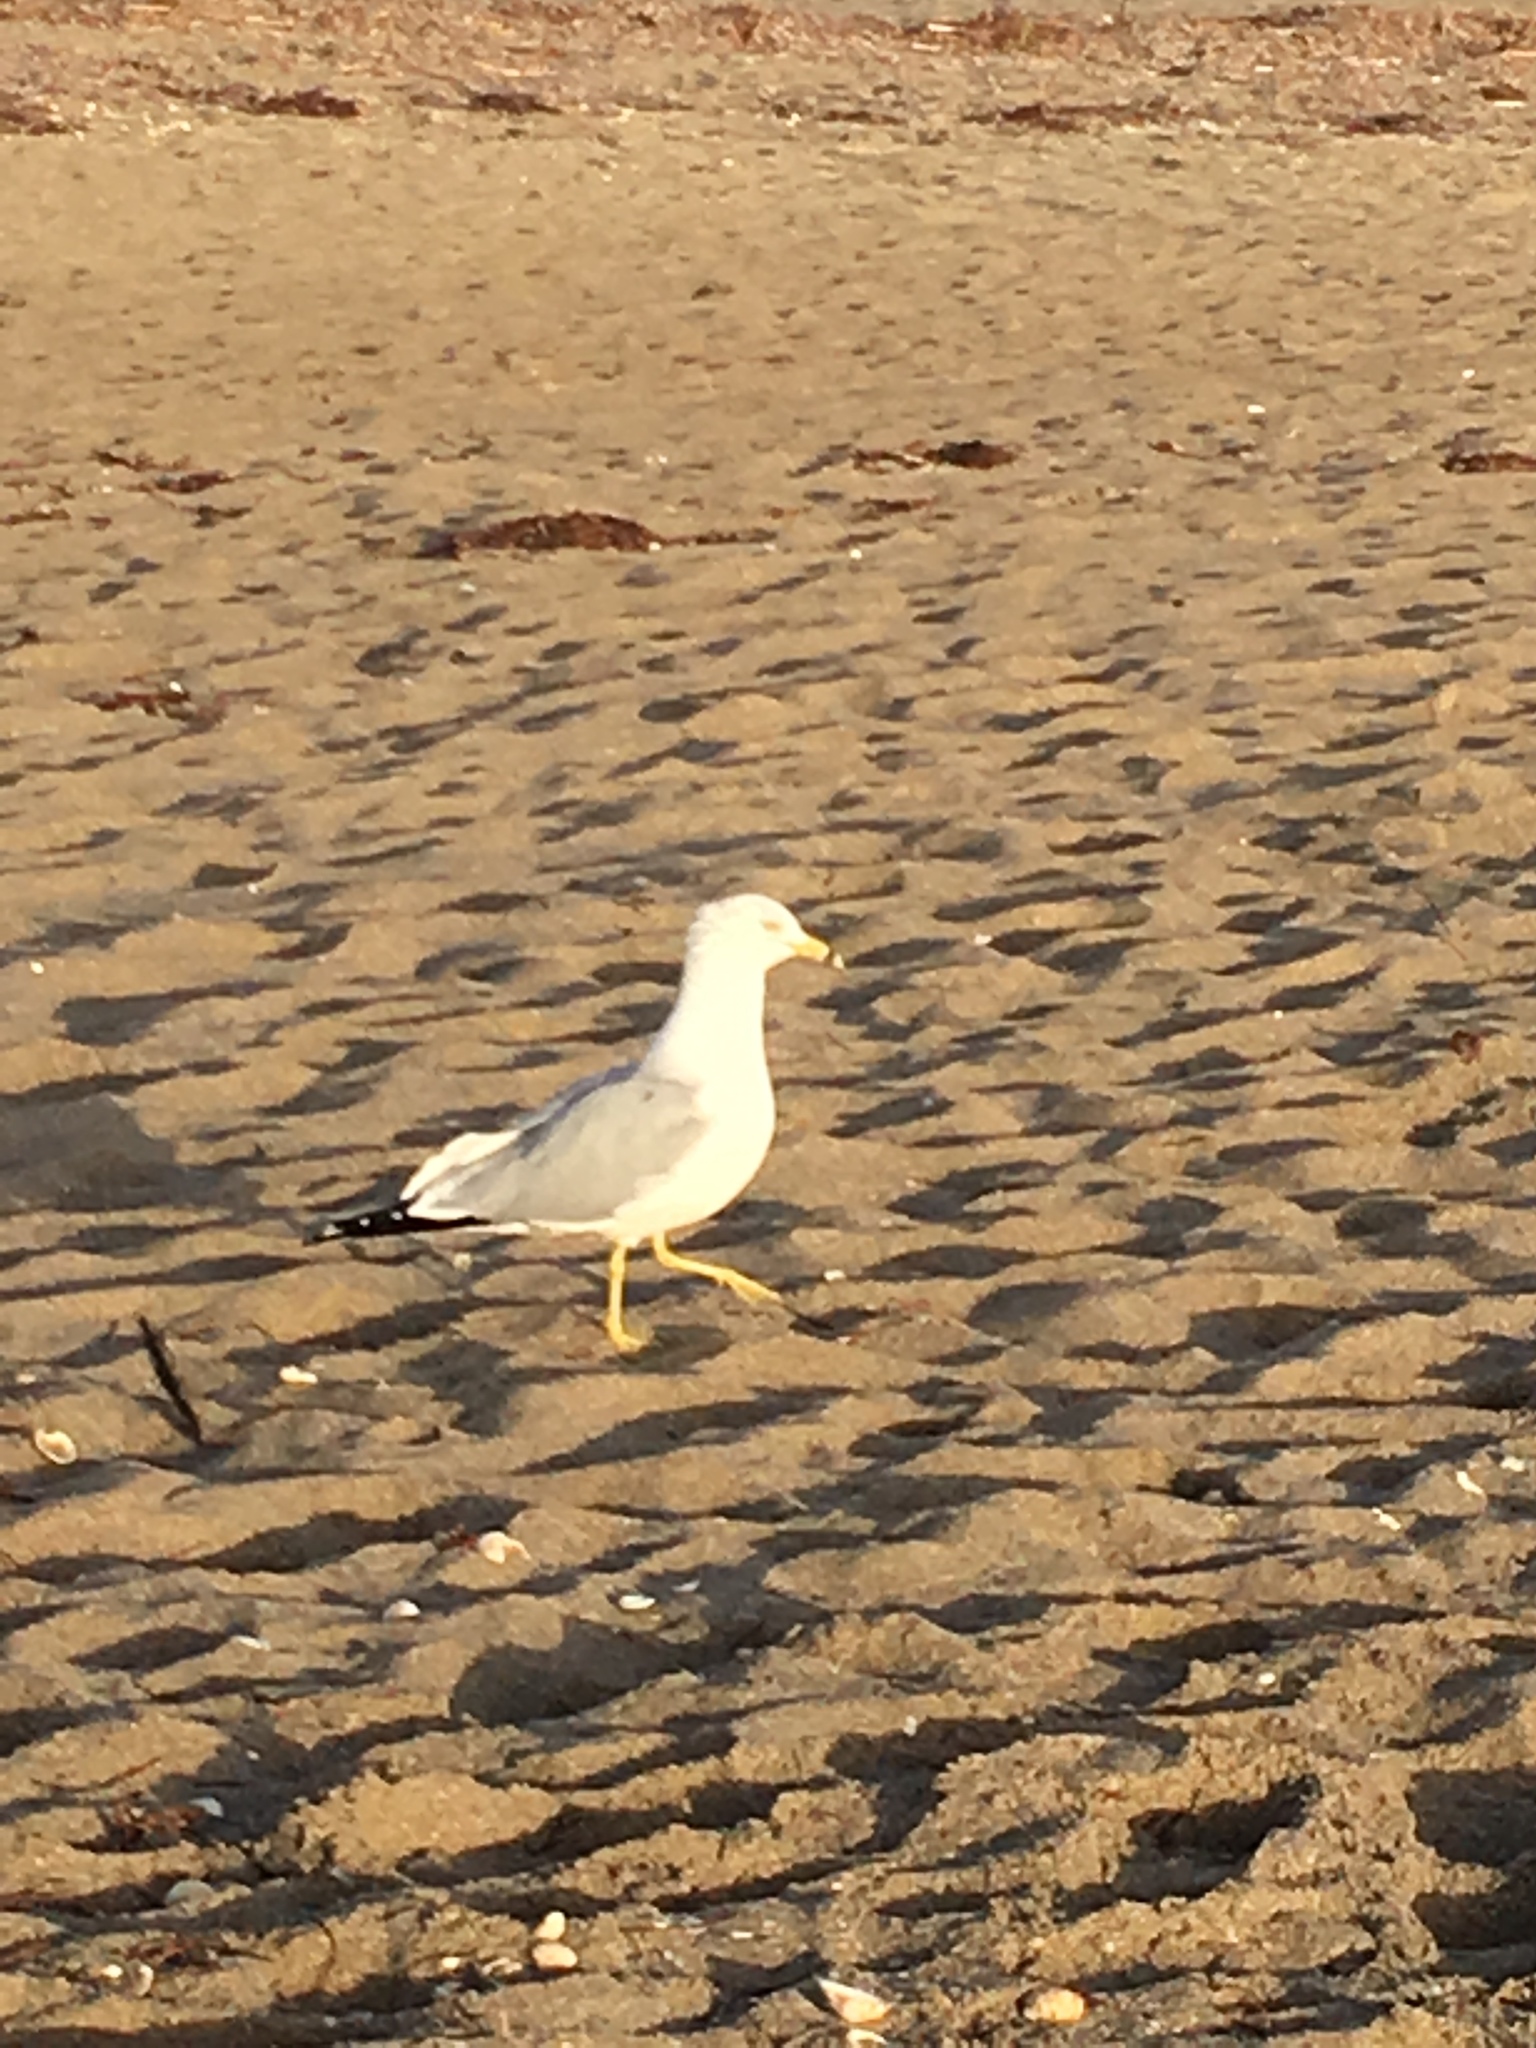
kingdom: Animalia
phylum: Chordata
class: Aves
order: Charadriiformes
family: Laridae
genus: Larus
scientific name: Larus delawarensis
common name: Ring-billed gull
